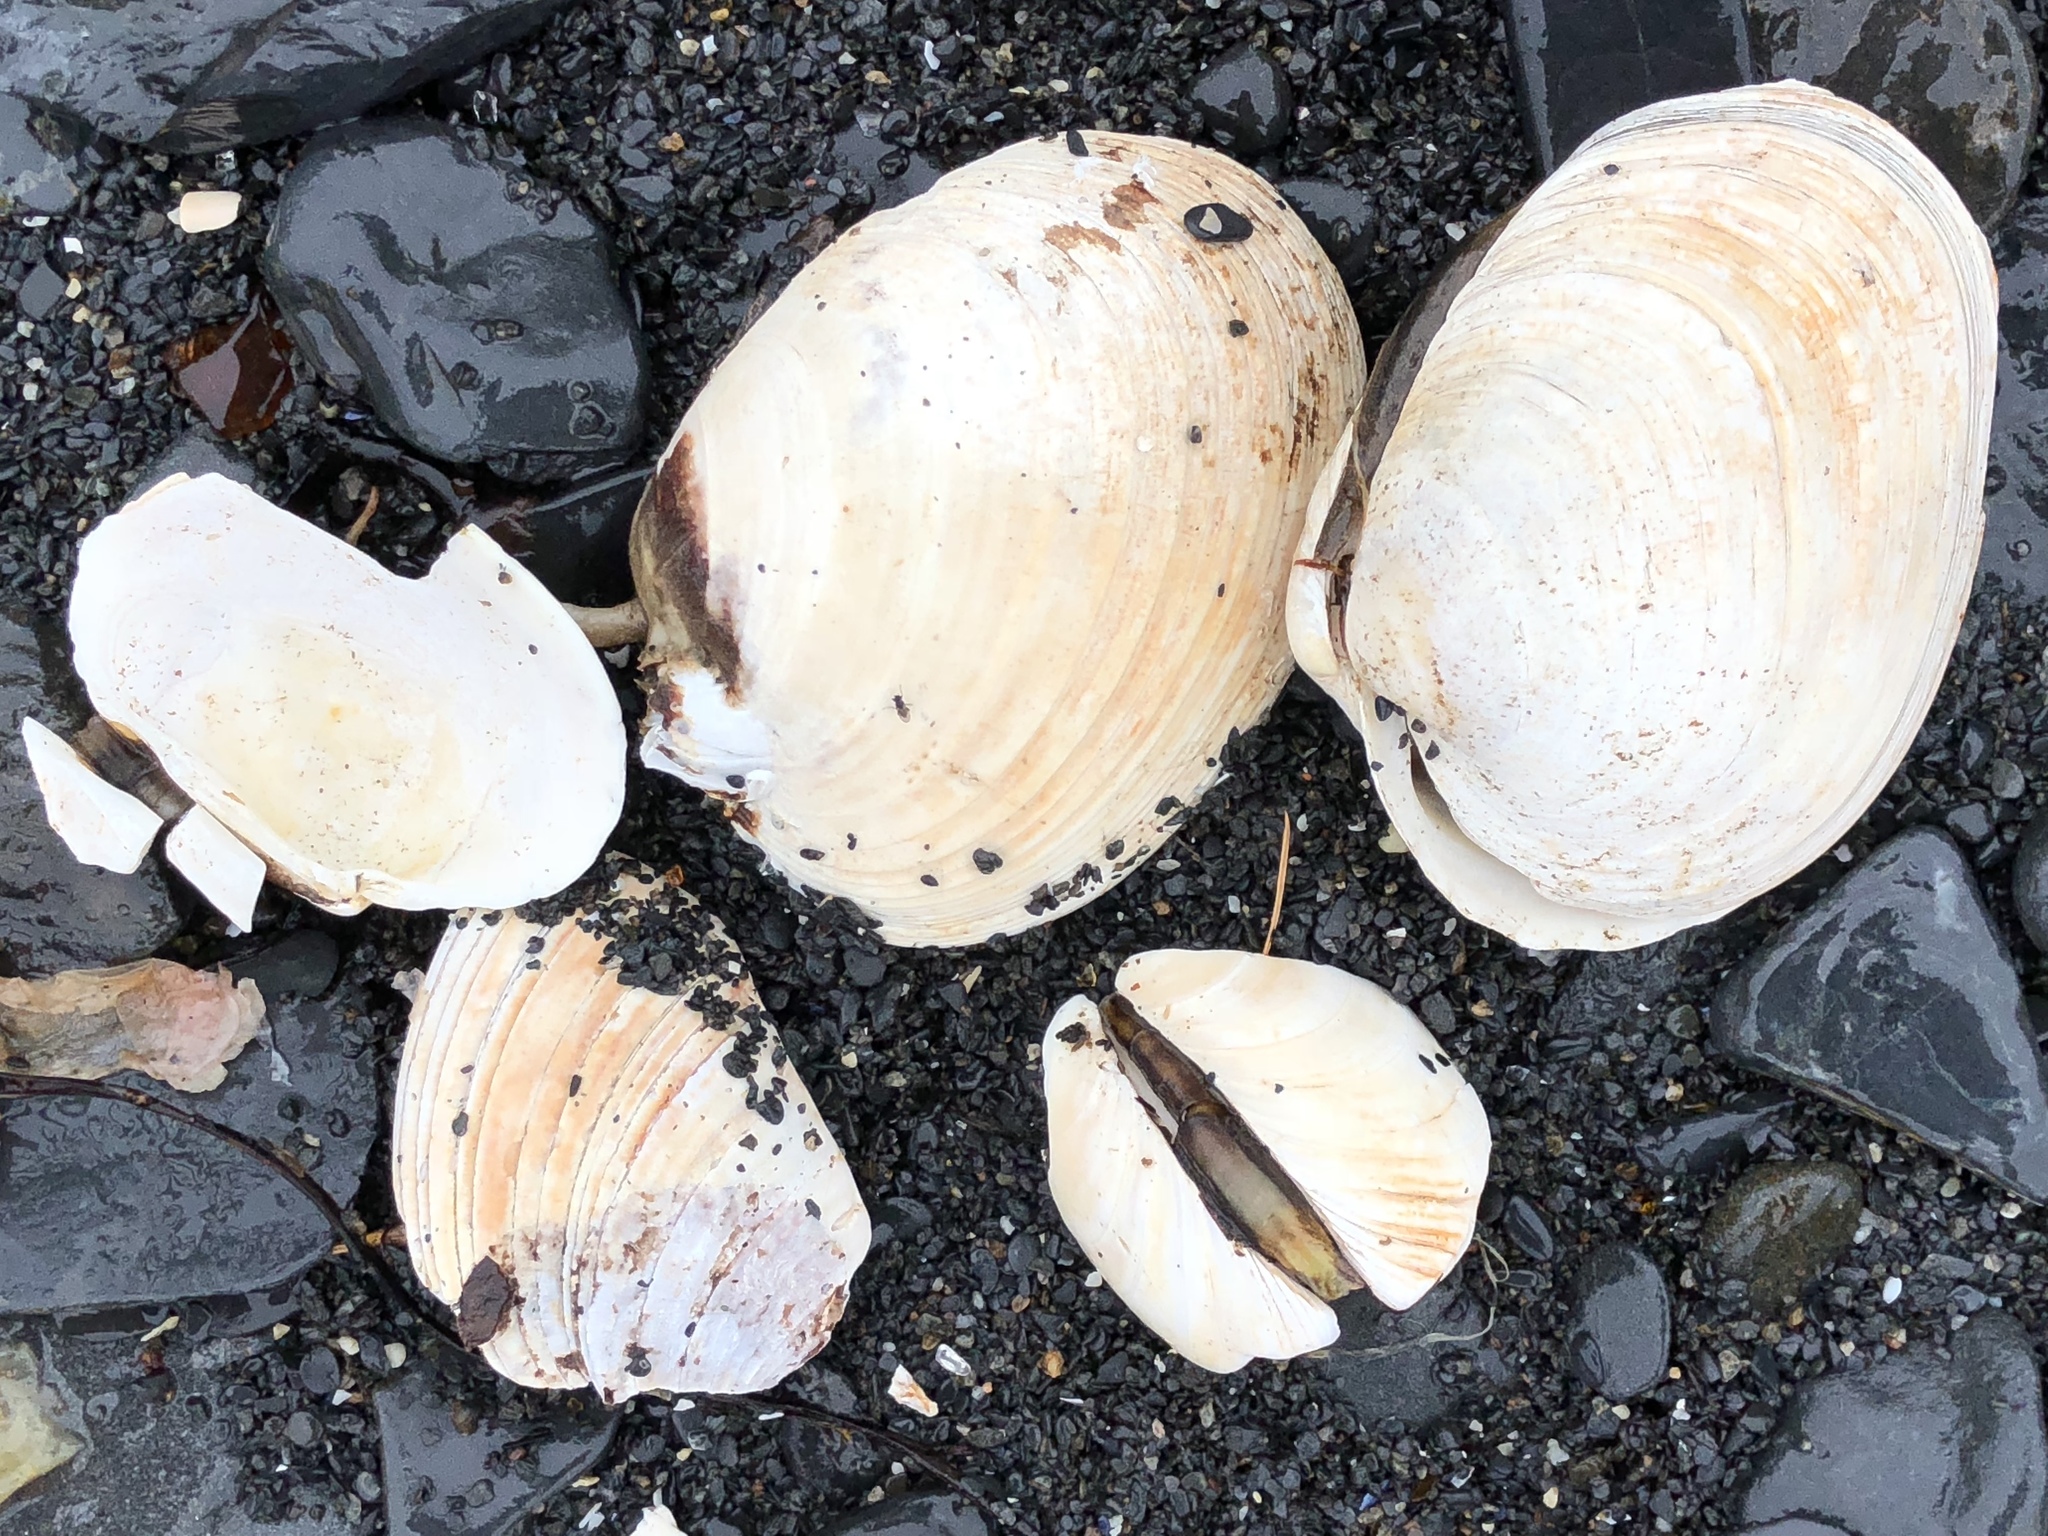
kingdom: Animalia
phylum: Mollusca
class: Bivalvia
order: Venerida
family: Veneridae
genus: Saxidomus
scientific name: Saxidomus gigantea
